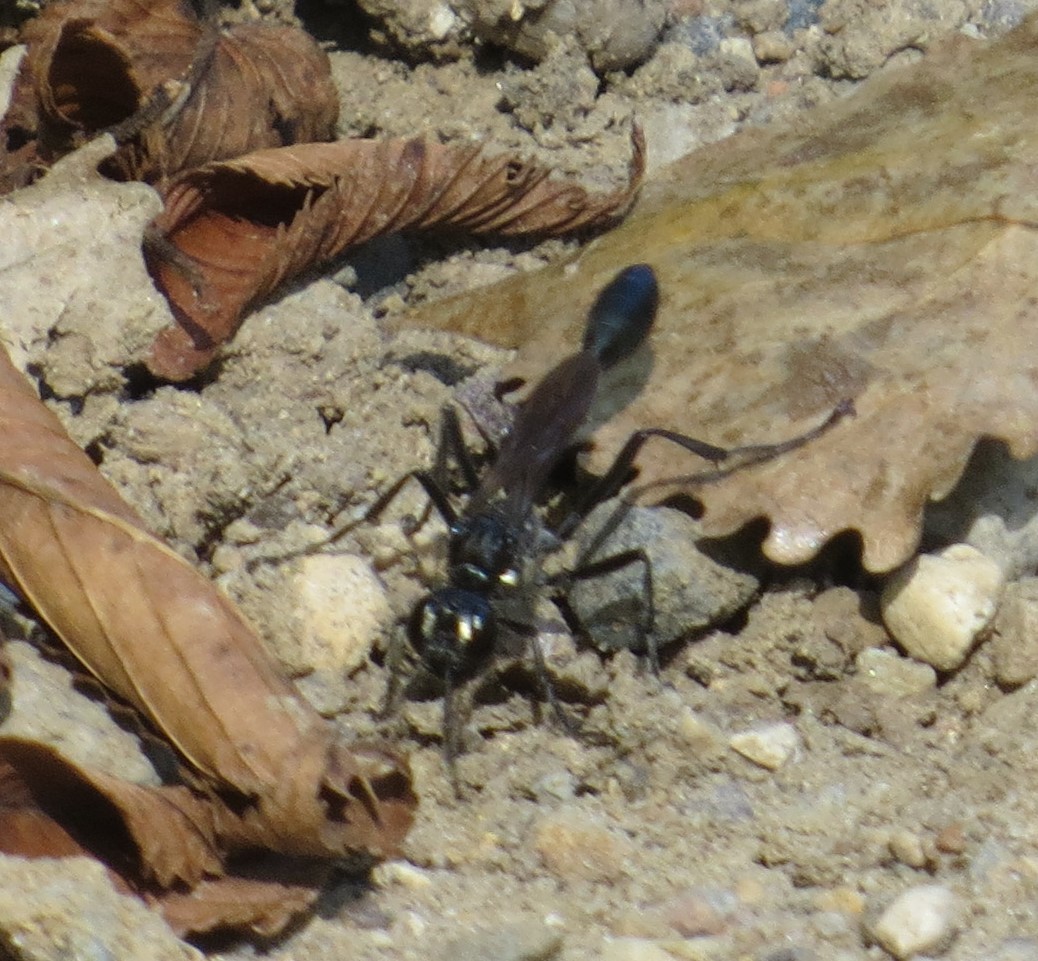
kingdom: Animalia
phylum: Arthropoda
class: Insecta
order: Hymenoptera
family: Sphecidae
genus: Eremnophila
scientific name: Eremnophila aureonotata
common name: Gold-marked thread-waisted wasp
